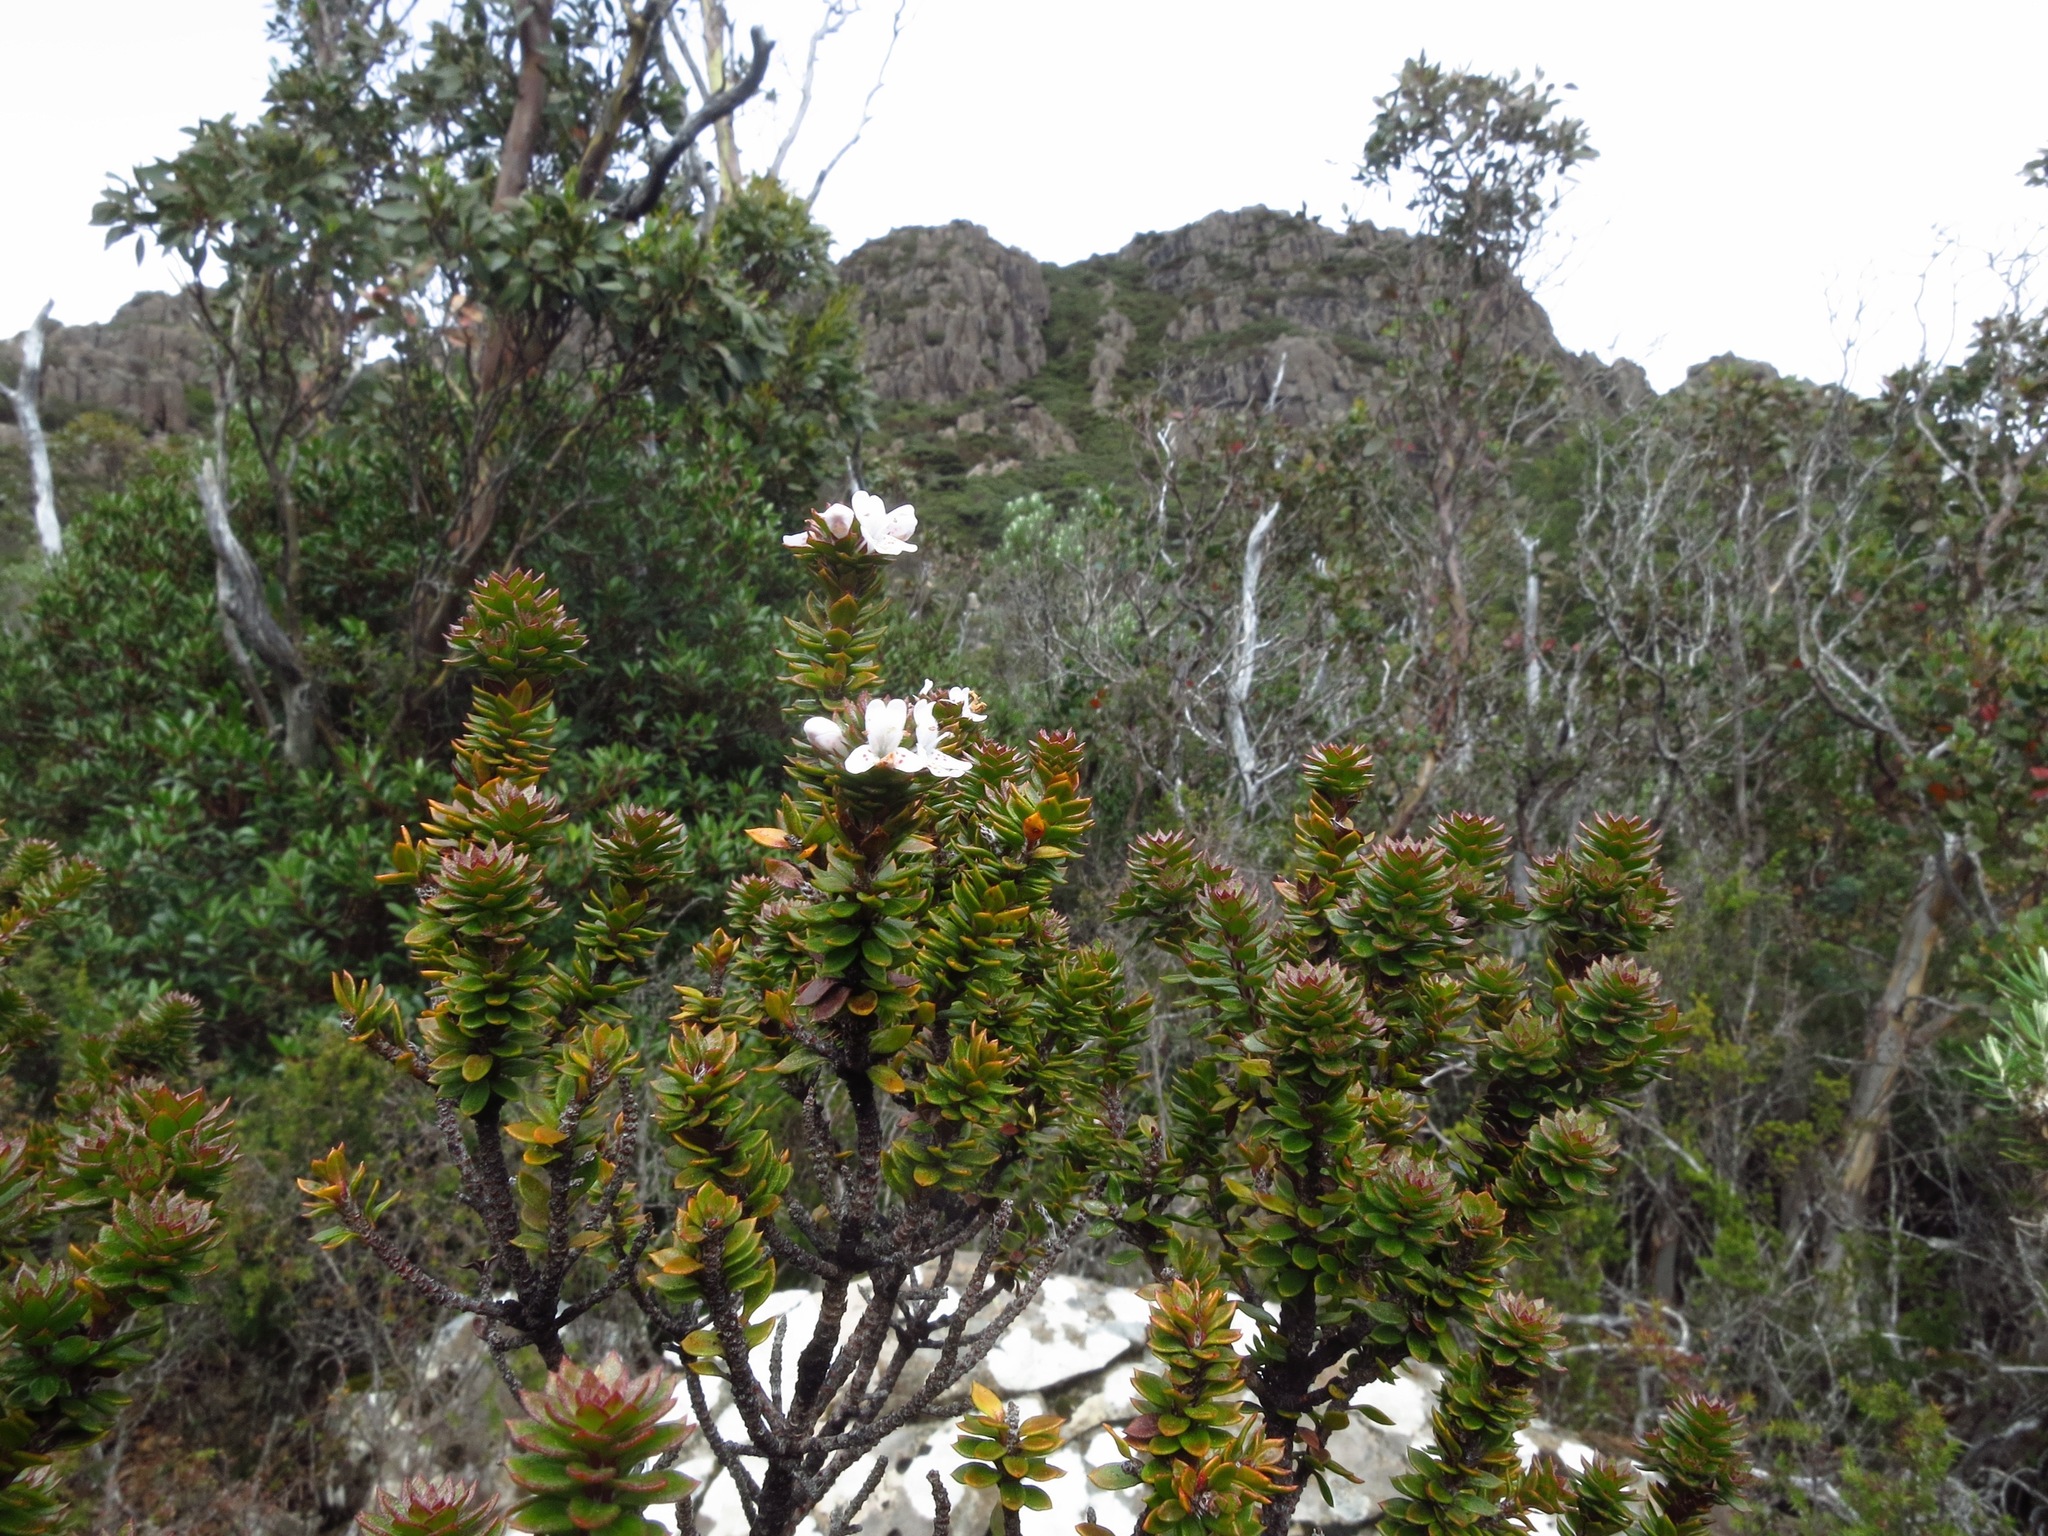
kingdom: Plantae
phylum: Tracheophyta
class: Magnoliopsida
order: Lamiales
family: Lamiaceae
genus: Westringia
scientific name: Westringia rubiifolia
